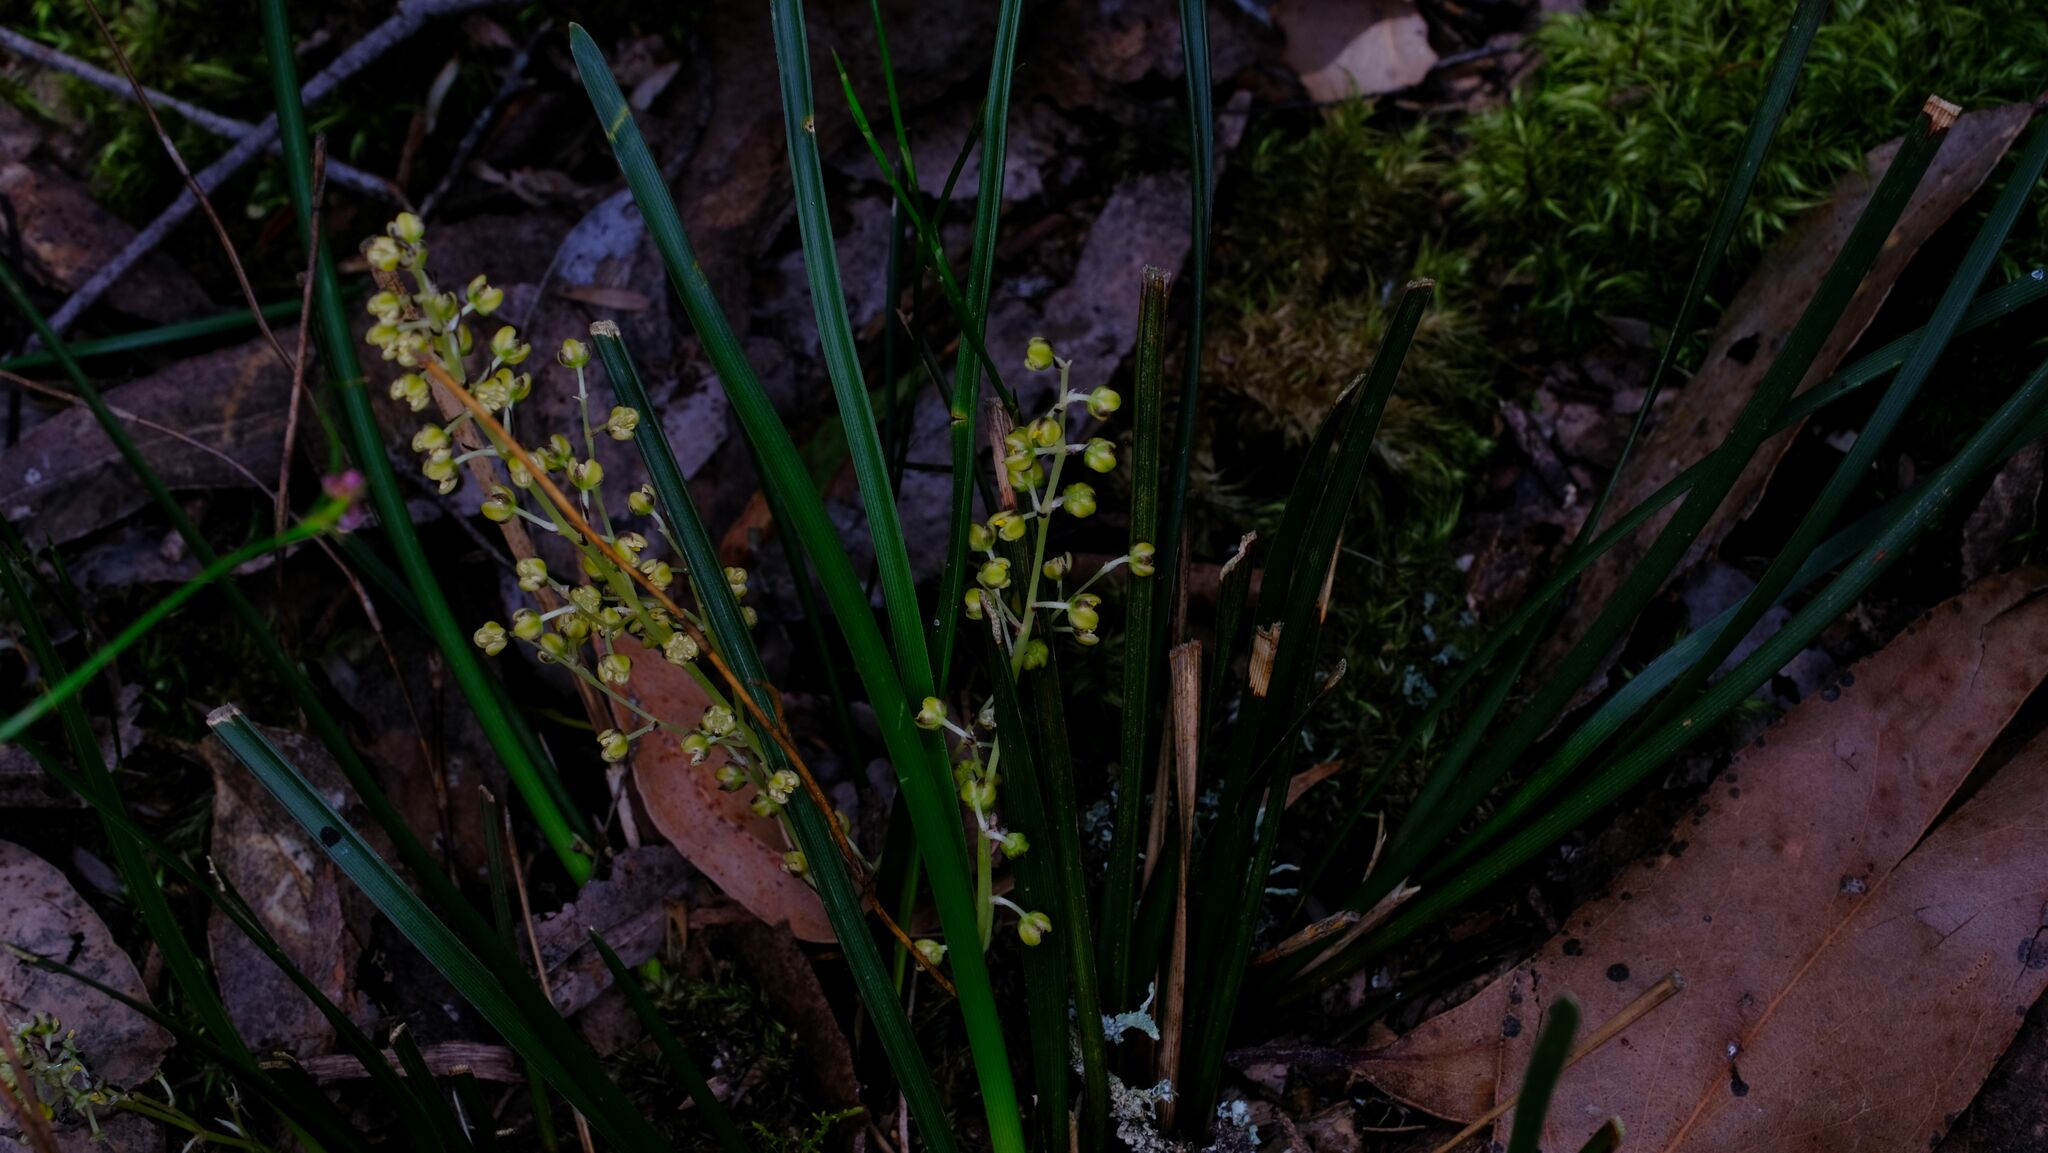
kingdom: Plantae
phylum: Tracheophyta
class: Liliopsida
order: Asparagales
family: Asparagaceae
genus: Lomandra
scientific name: Lomandra filiformis
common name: Wattle mat-rush
